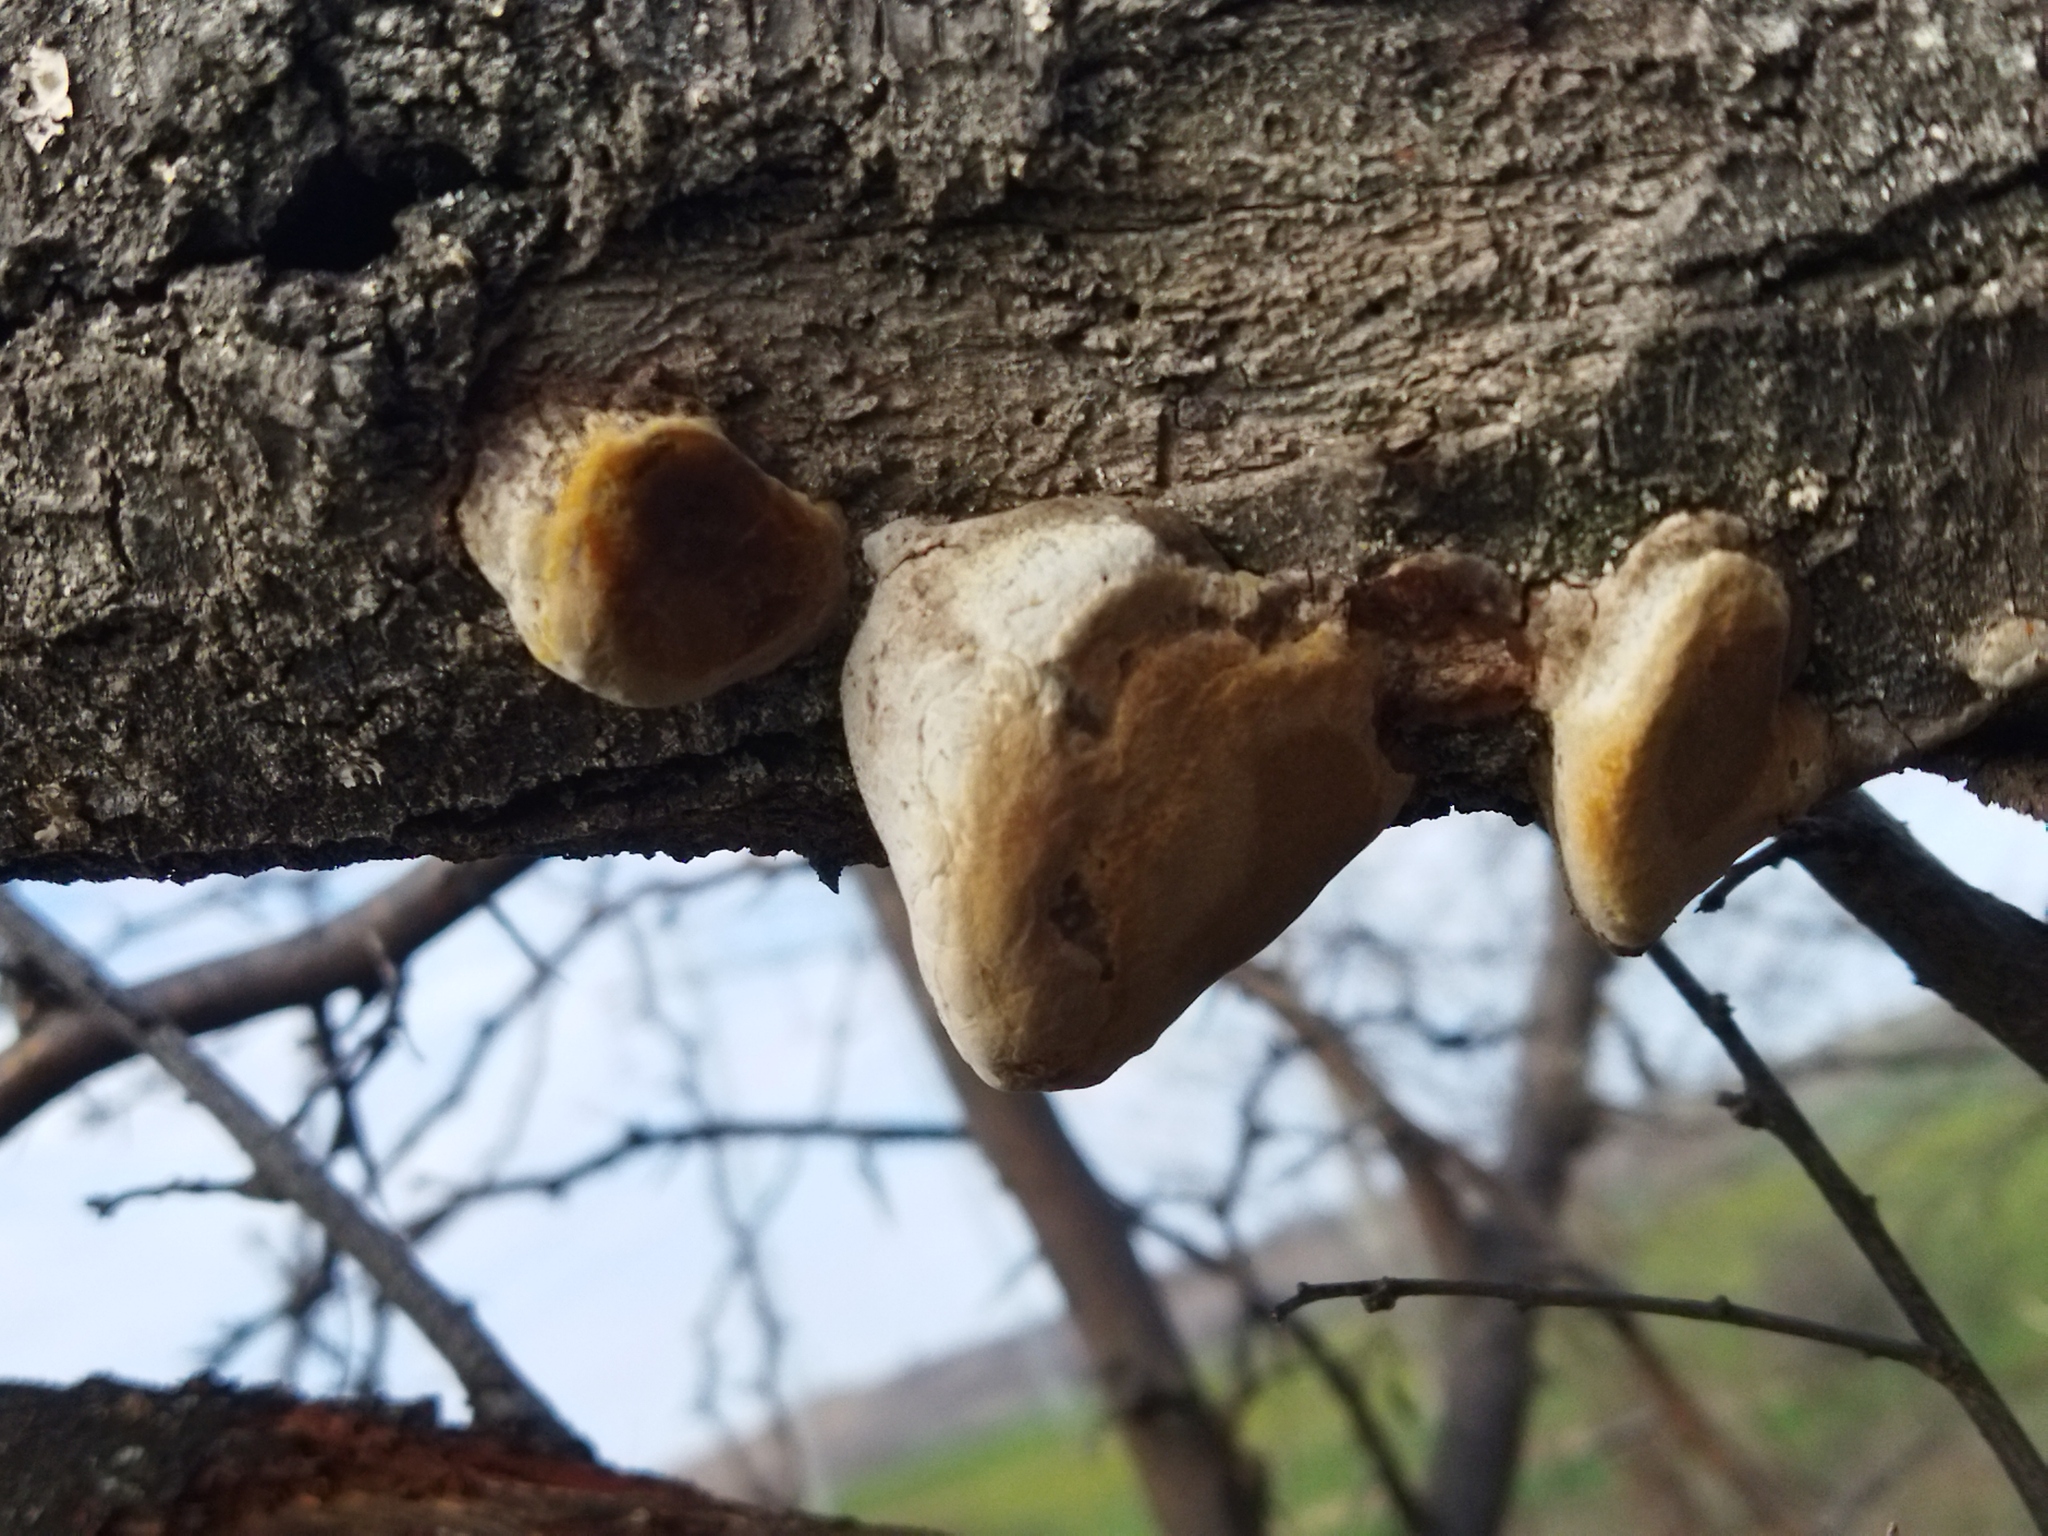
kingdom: Fungi
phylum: Basidiomycota
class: Agaricomycetes
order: Hymenochaetales
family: Hymenochaetaceae
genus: Phellinus
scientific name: Phellinus pomaceus
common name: Cushion bracket
